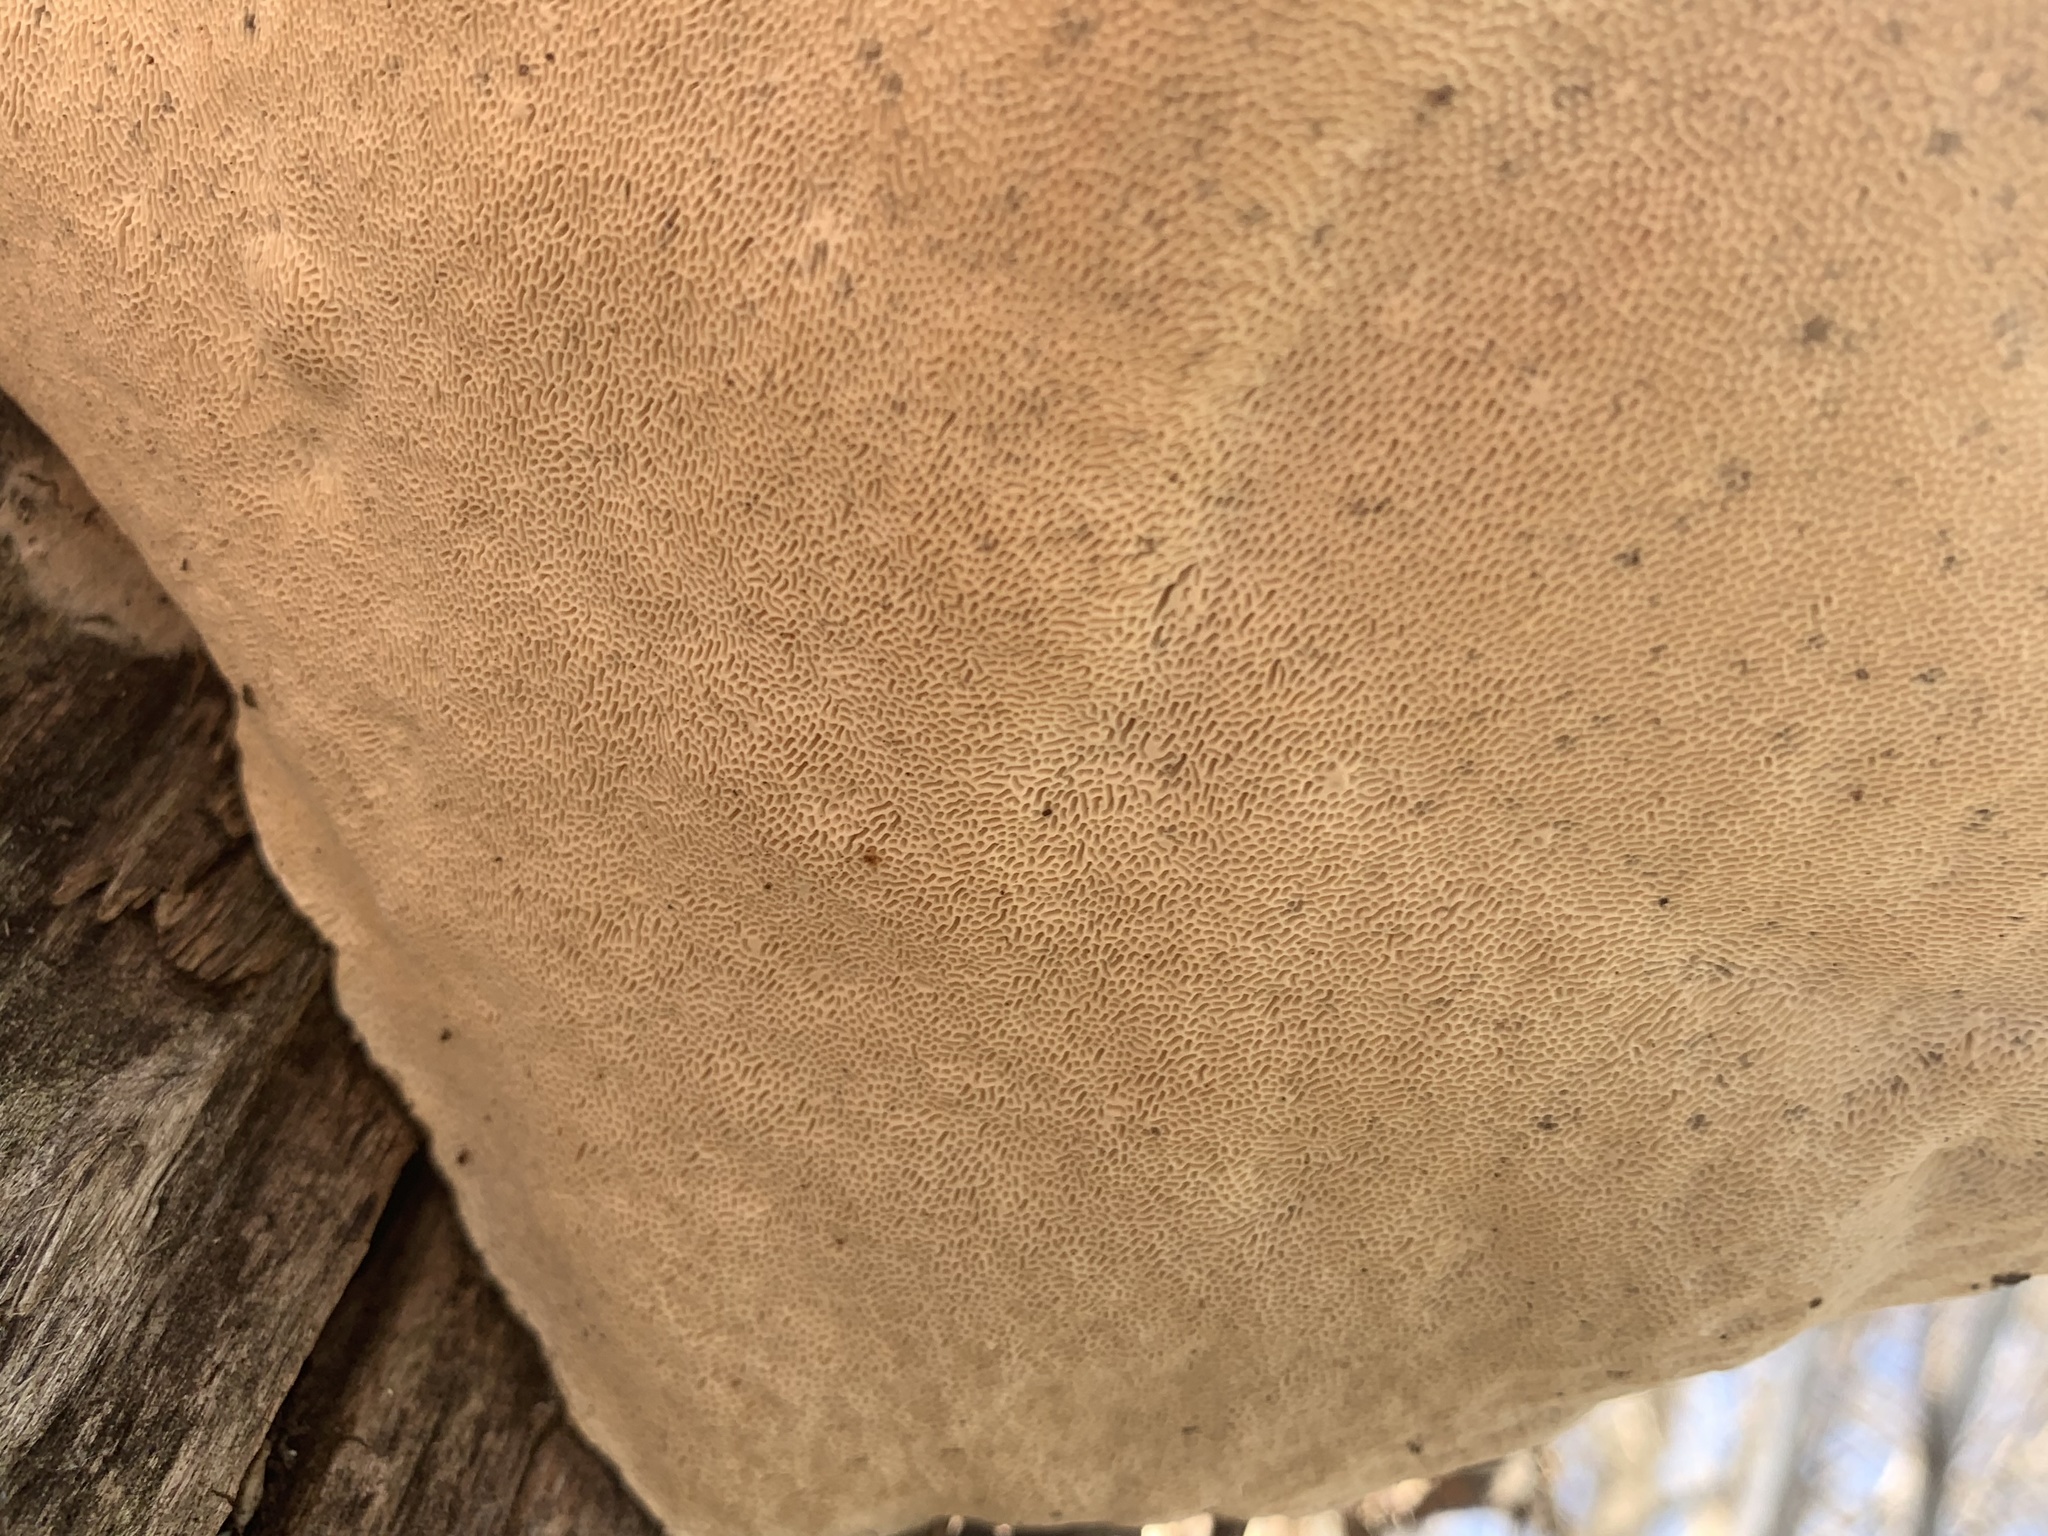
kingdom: Fungi
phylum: Basidiomycota
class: Agaricomycetes
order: Polyporales
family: Polyporaceae
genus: Trametes
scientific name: Trametes gibbosa
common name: Lumpy bracket
